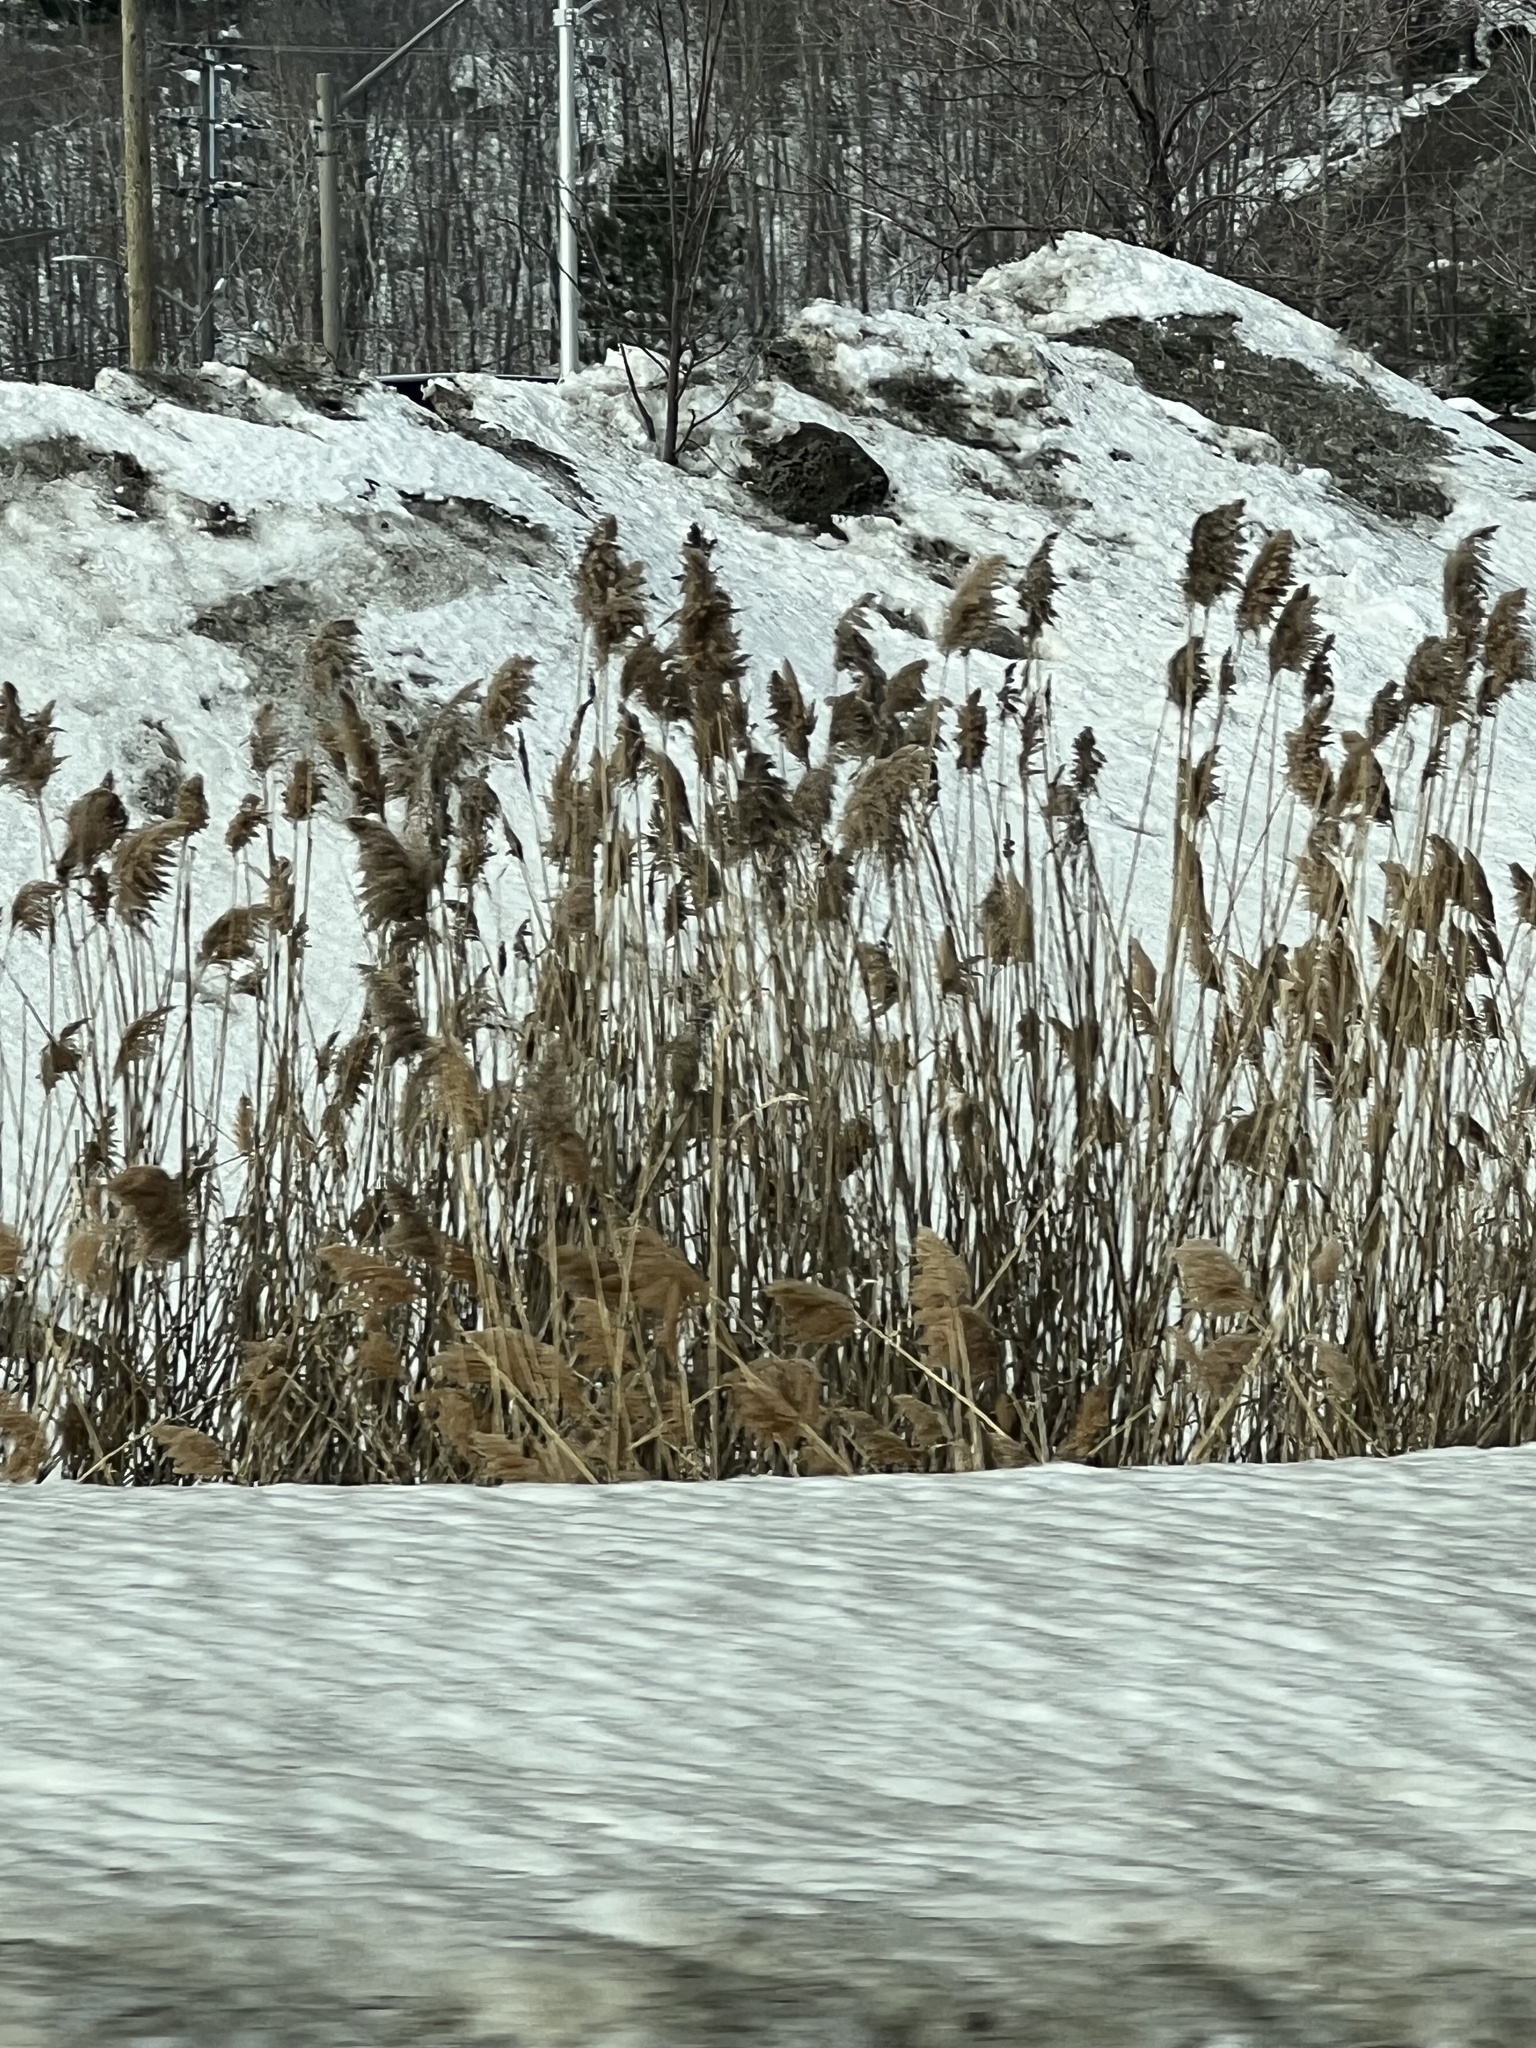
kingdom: Plantae
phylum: Tracheophyta
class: Liliopsida
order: Poales
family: Poaceae
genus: Phragmites
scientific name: Phragmites australis
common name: Common reed
